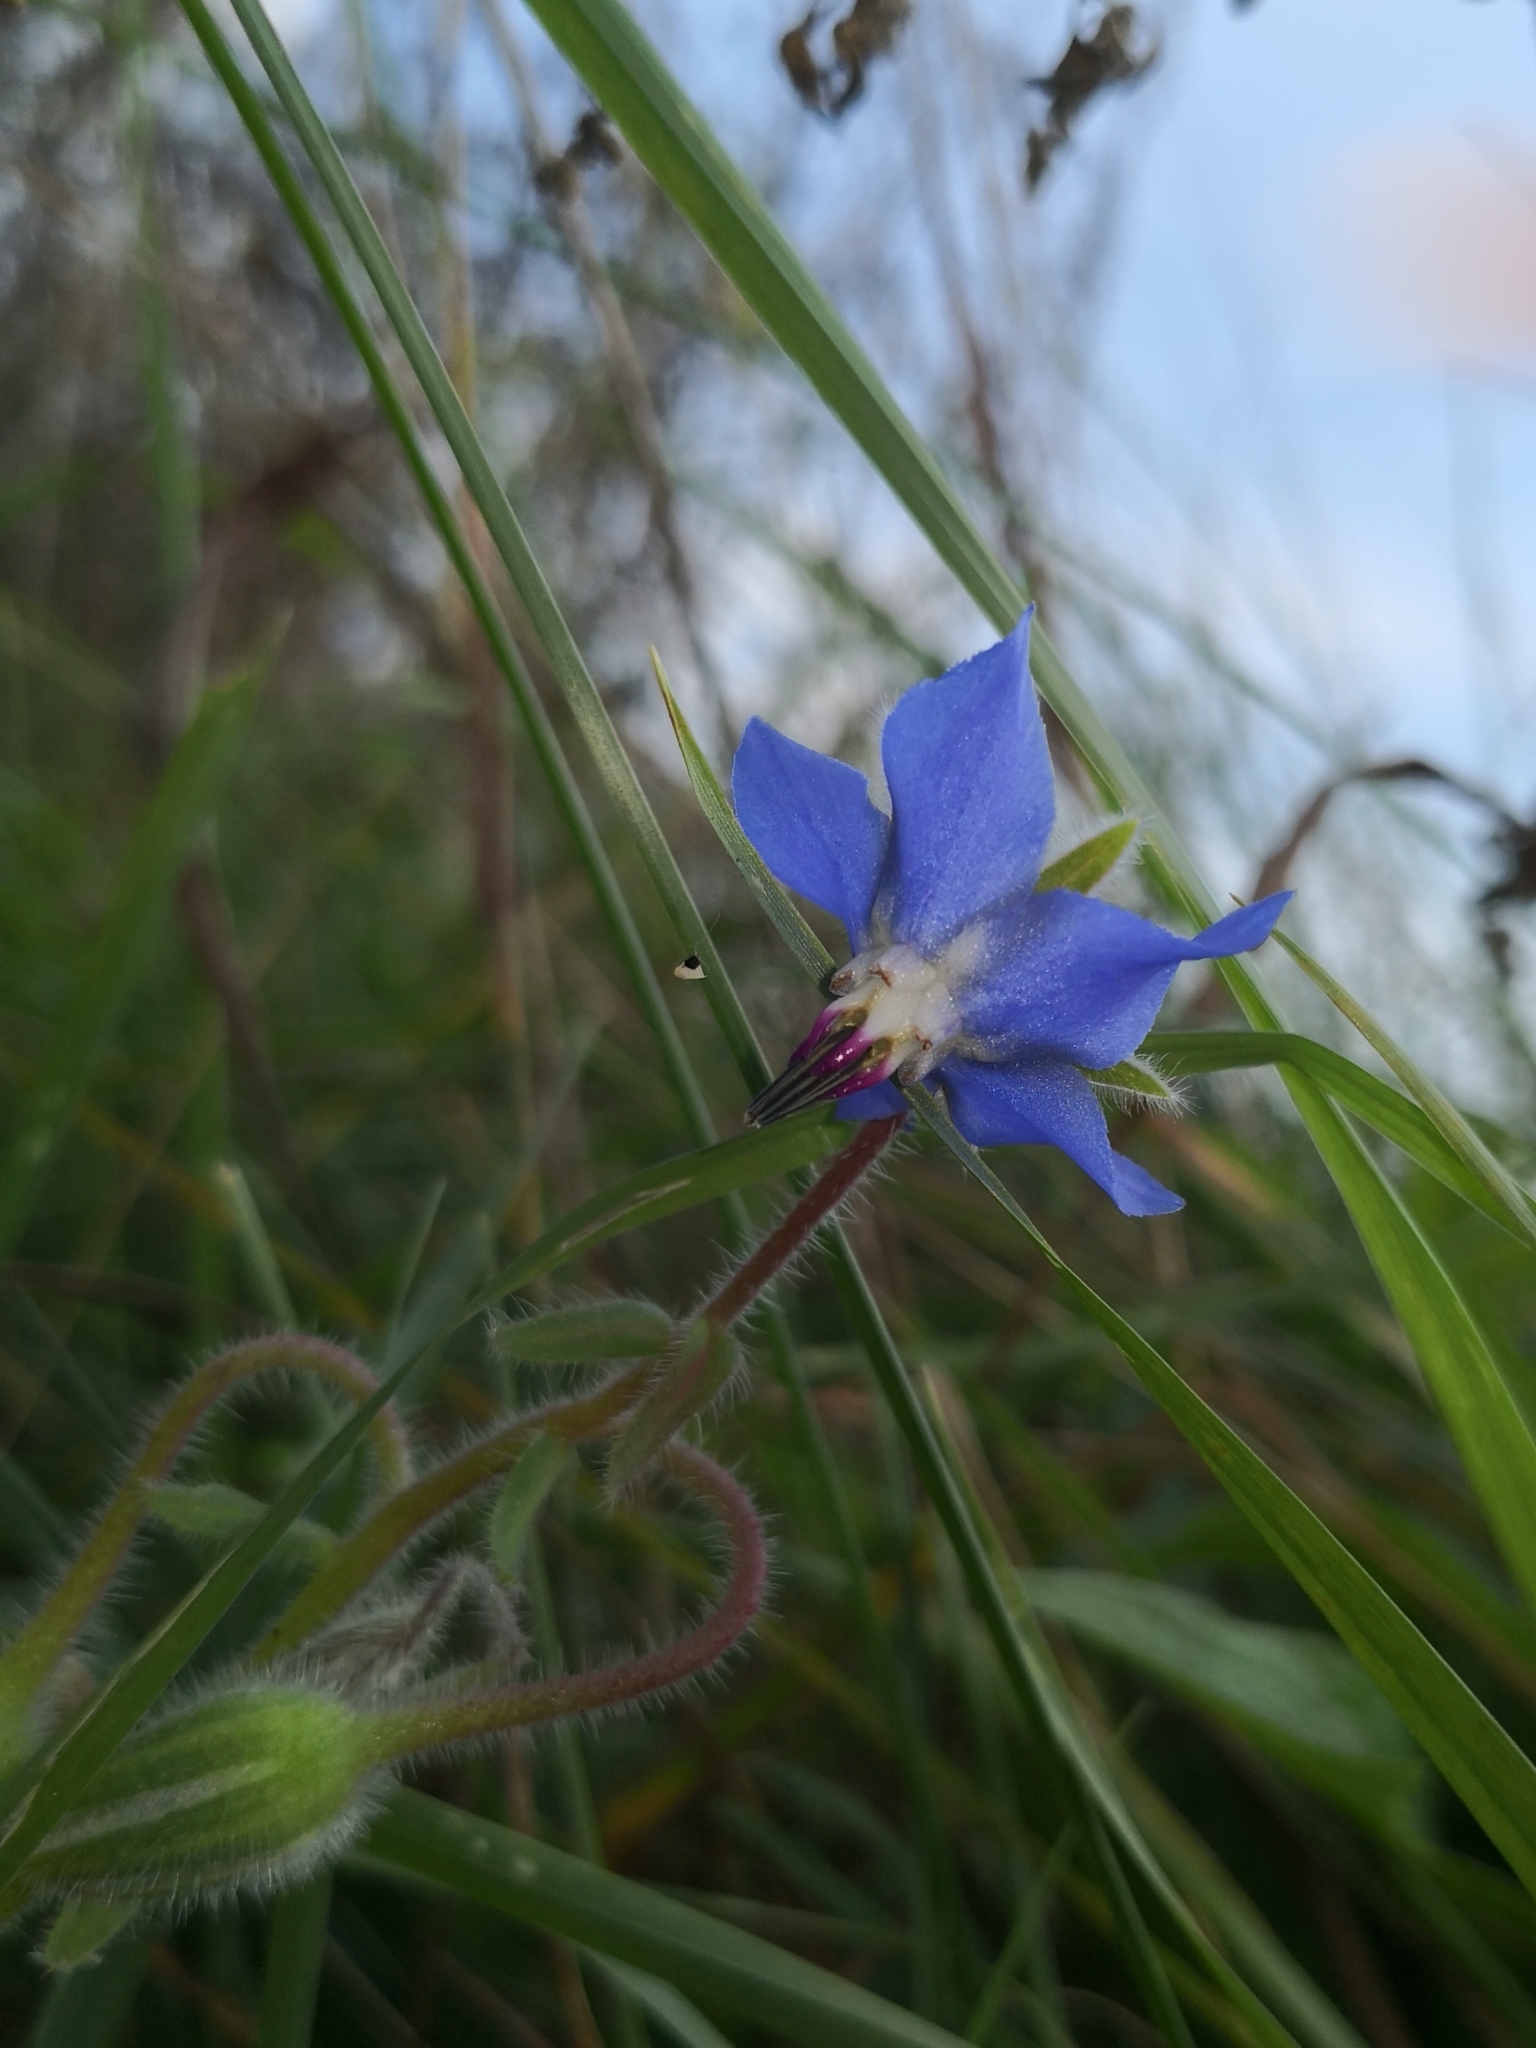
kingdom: Plantae
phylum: Tracheophyta
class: Magnoliopsida
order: Boraginales
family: Boraginaceae
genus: Borago
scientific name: Borago officinalis
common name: Borage
